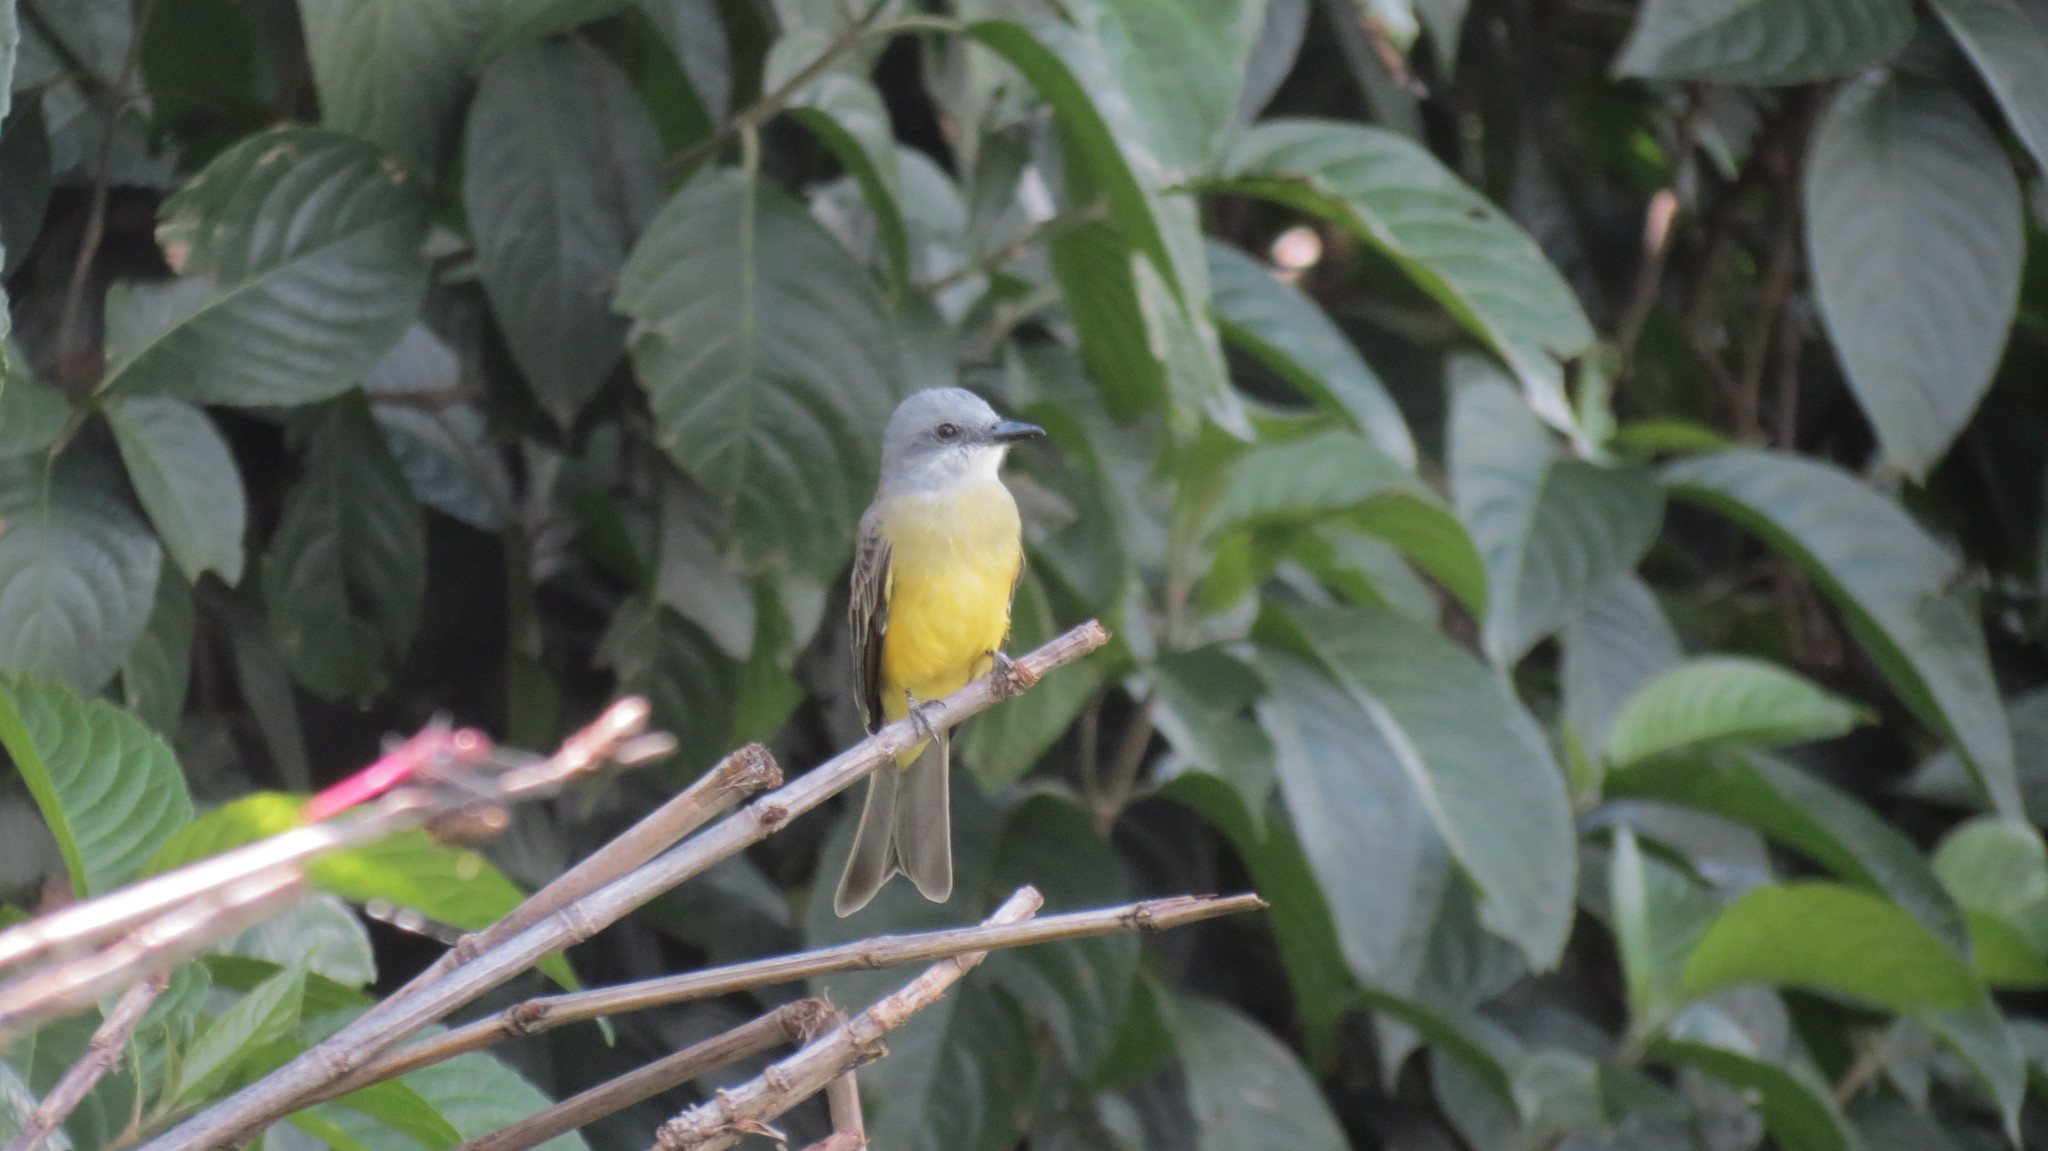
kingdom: Animalia
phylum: Chordata
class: Aves
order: Passeriformes
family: Tyrannidae
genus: Tyrannus
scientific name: Tyrannus melancholicus
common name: Tropical kingbird
